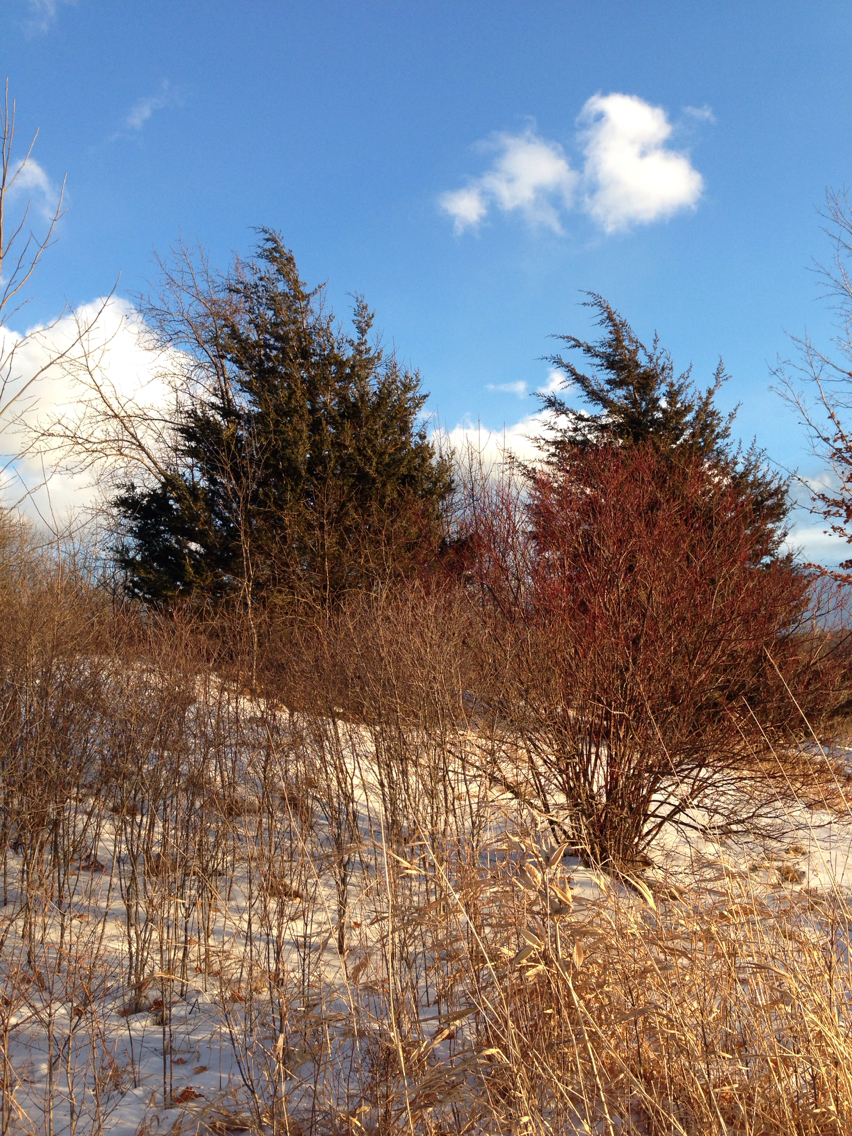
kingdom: Plantae
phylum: Tracheophyta
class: Pinopsida
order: Pinales
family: Cupressaceae
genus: Juniperus
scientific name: Juniperus virginiana
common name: Red juniper
